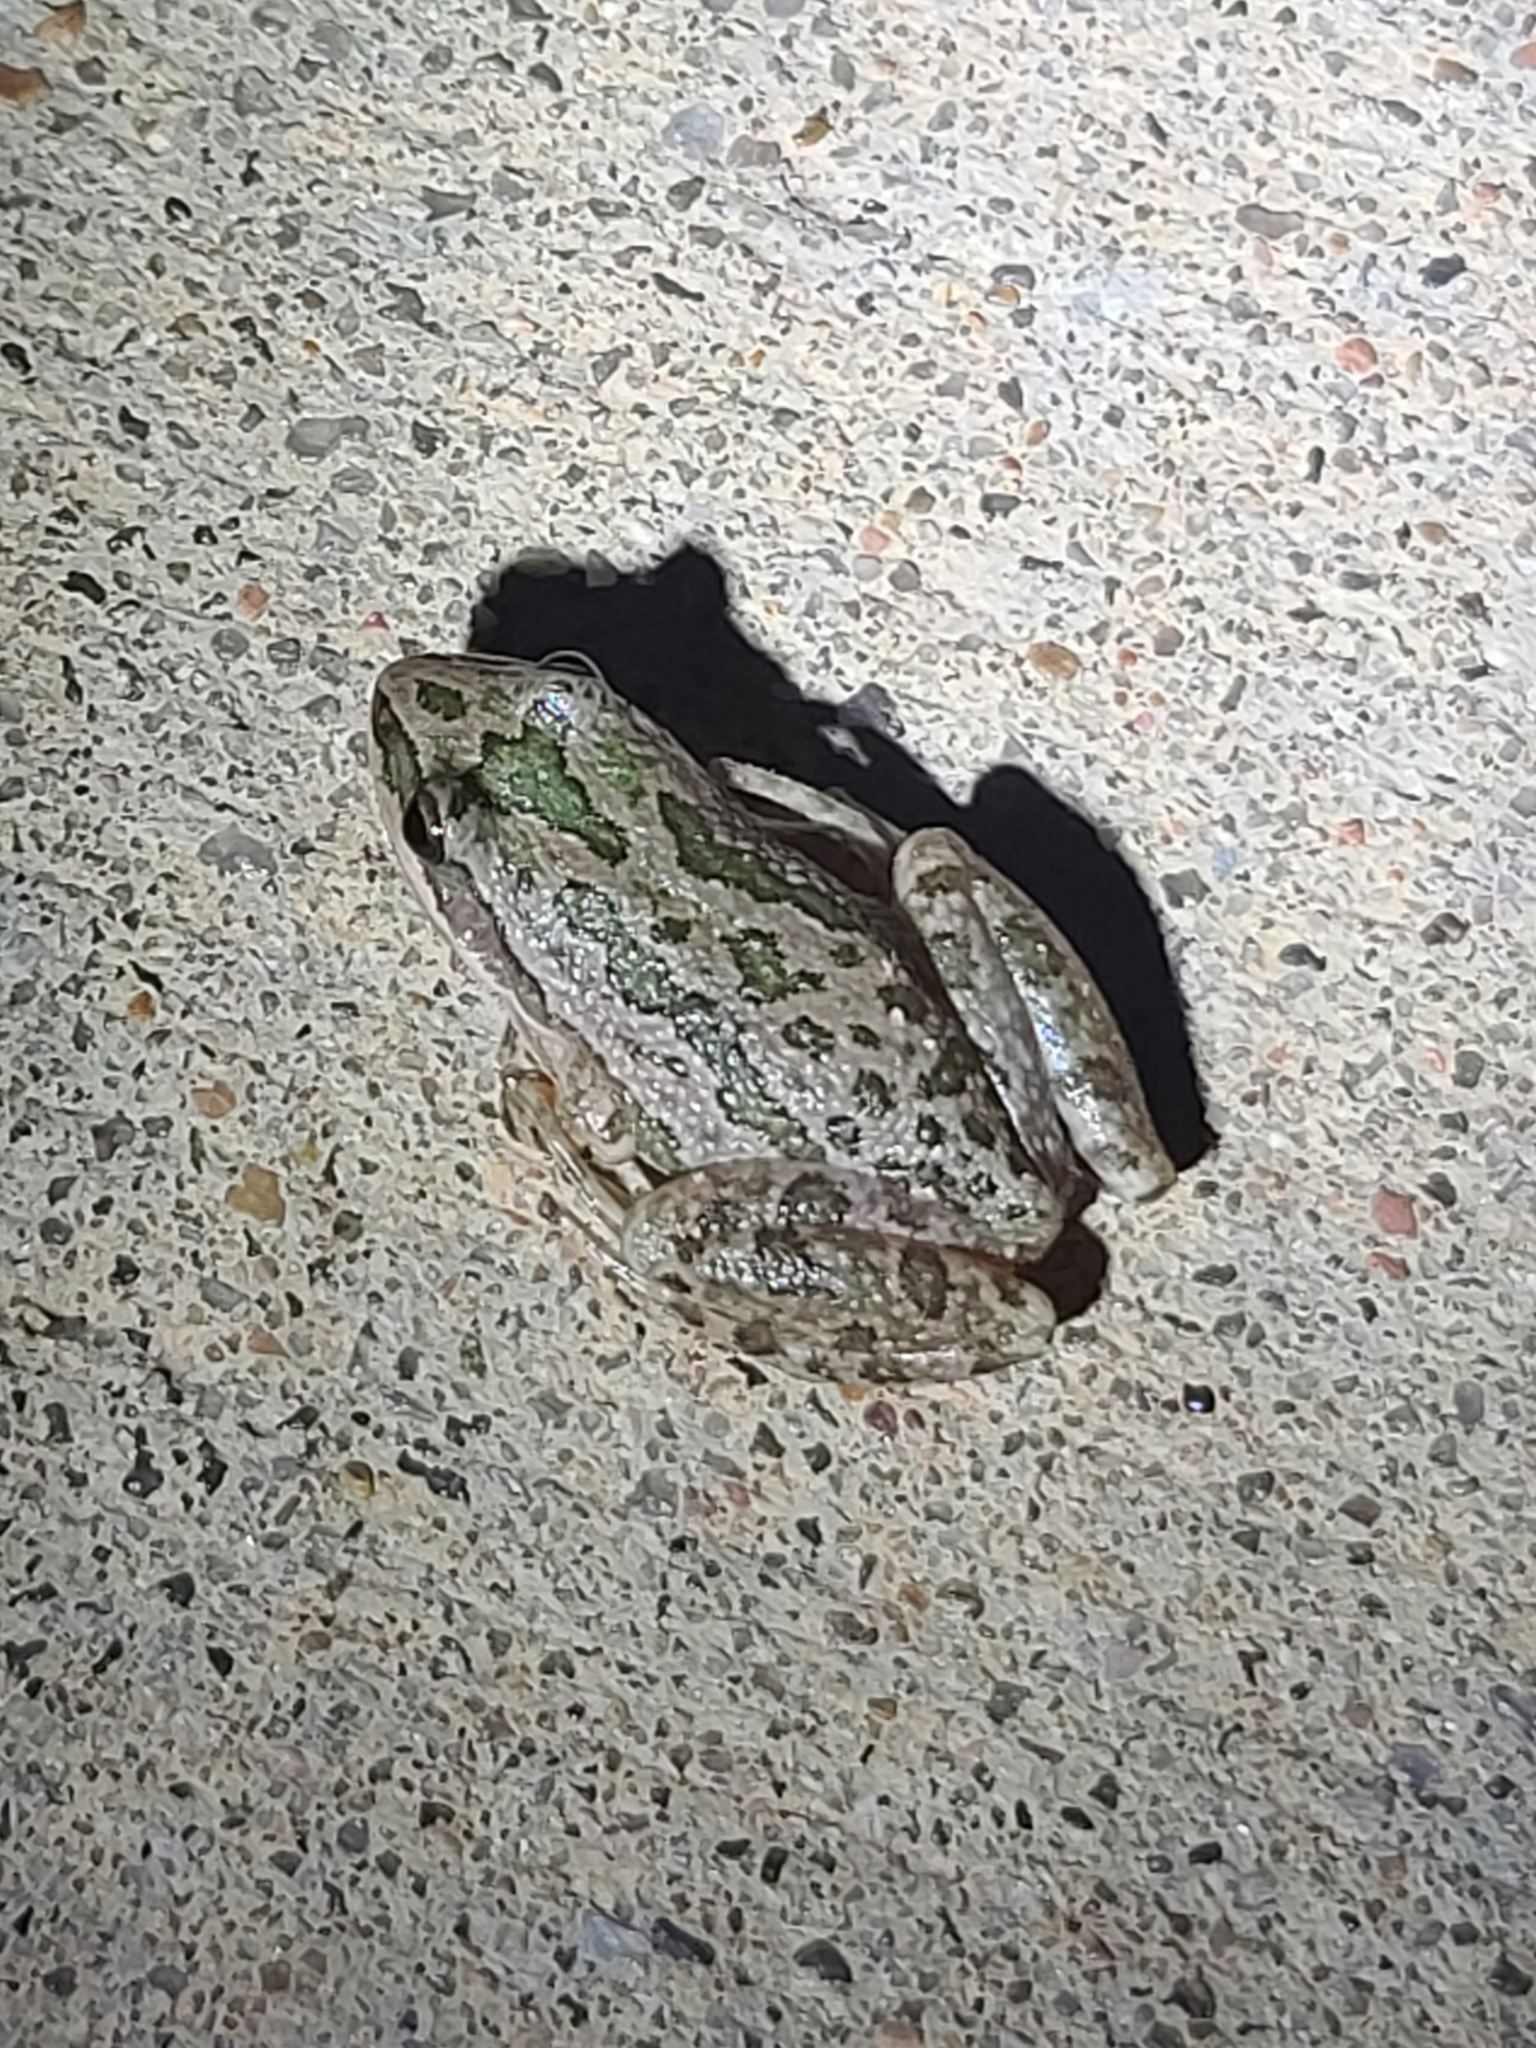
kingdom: Animalia
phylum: Chordata
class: Amphibia
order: Anura
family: Hylidae
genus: Pseudacris
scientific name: Pseudacris clarkii
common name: Spotted chorus frog
